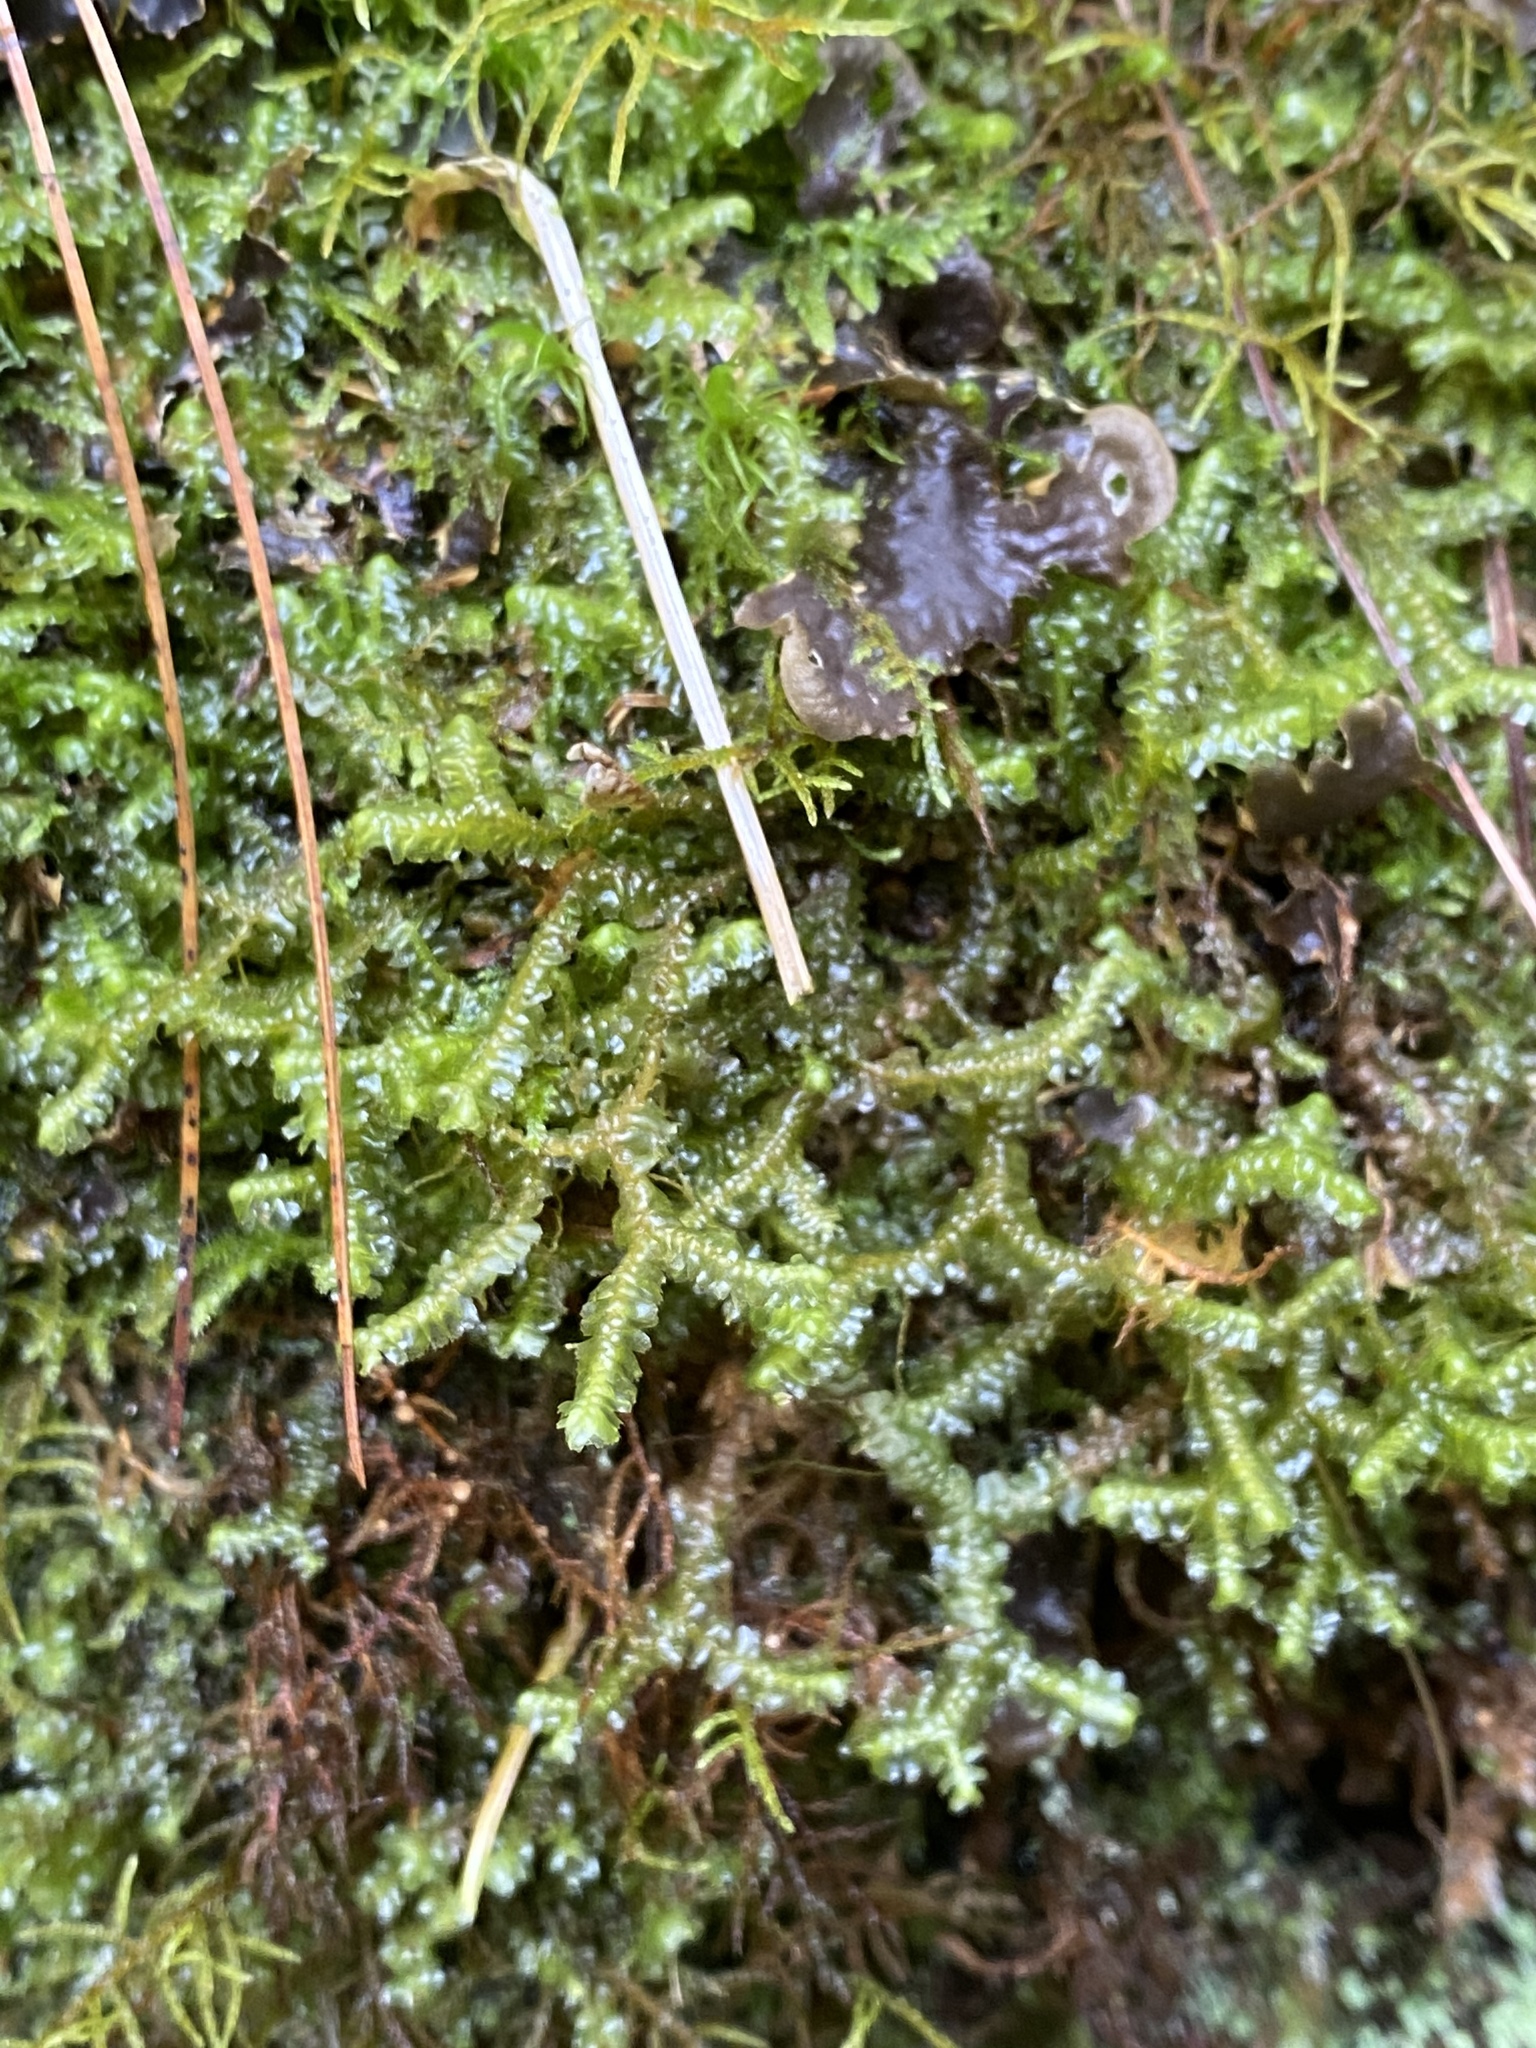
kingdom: Plantae
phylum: Marchantiophyta
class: Jungermanniopsida
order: Jungermanniales
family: Lepidoziaceae
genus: Bazzania
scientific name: Bazzania trilobata
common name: Three-lobed whipwort
